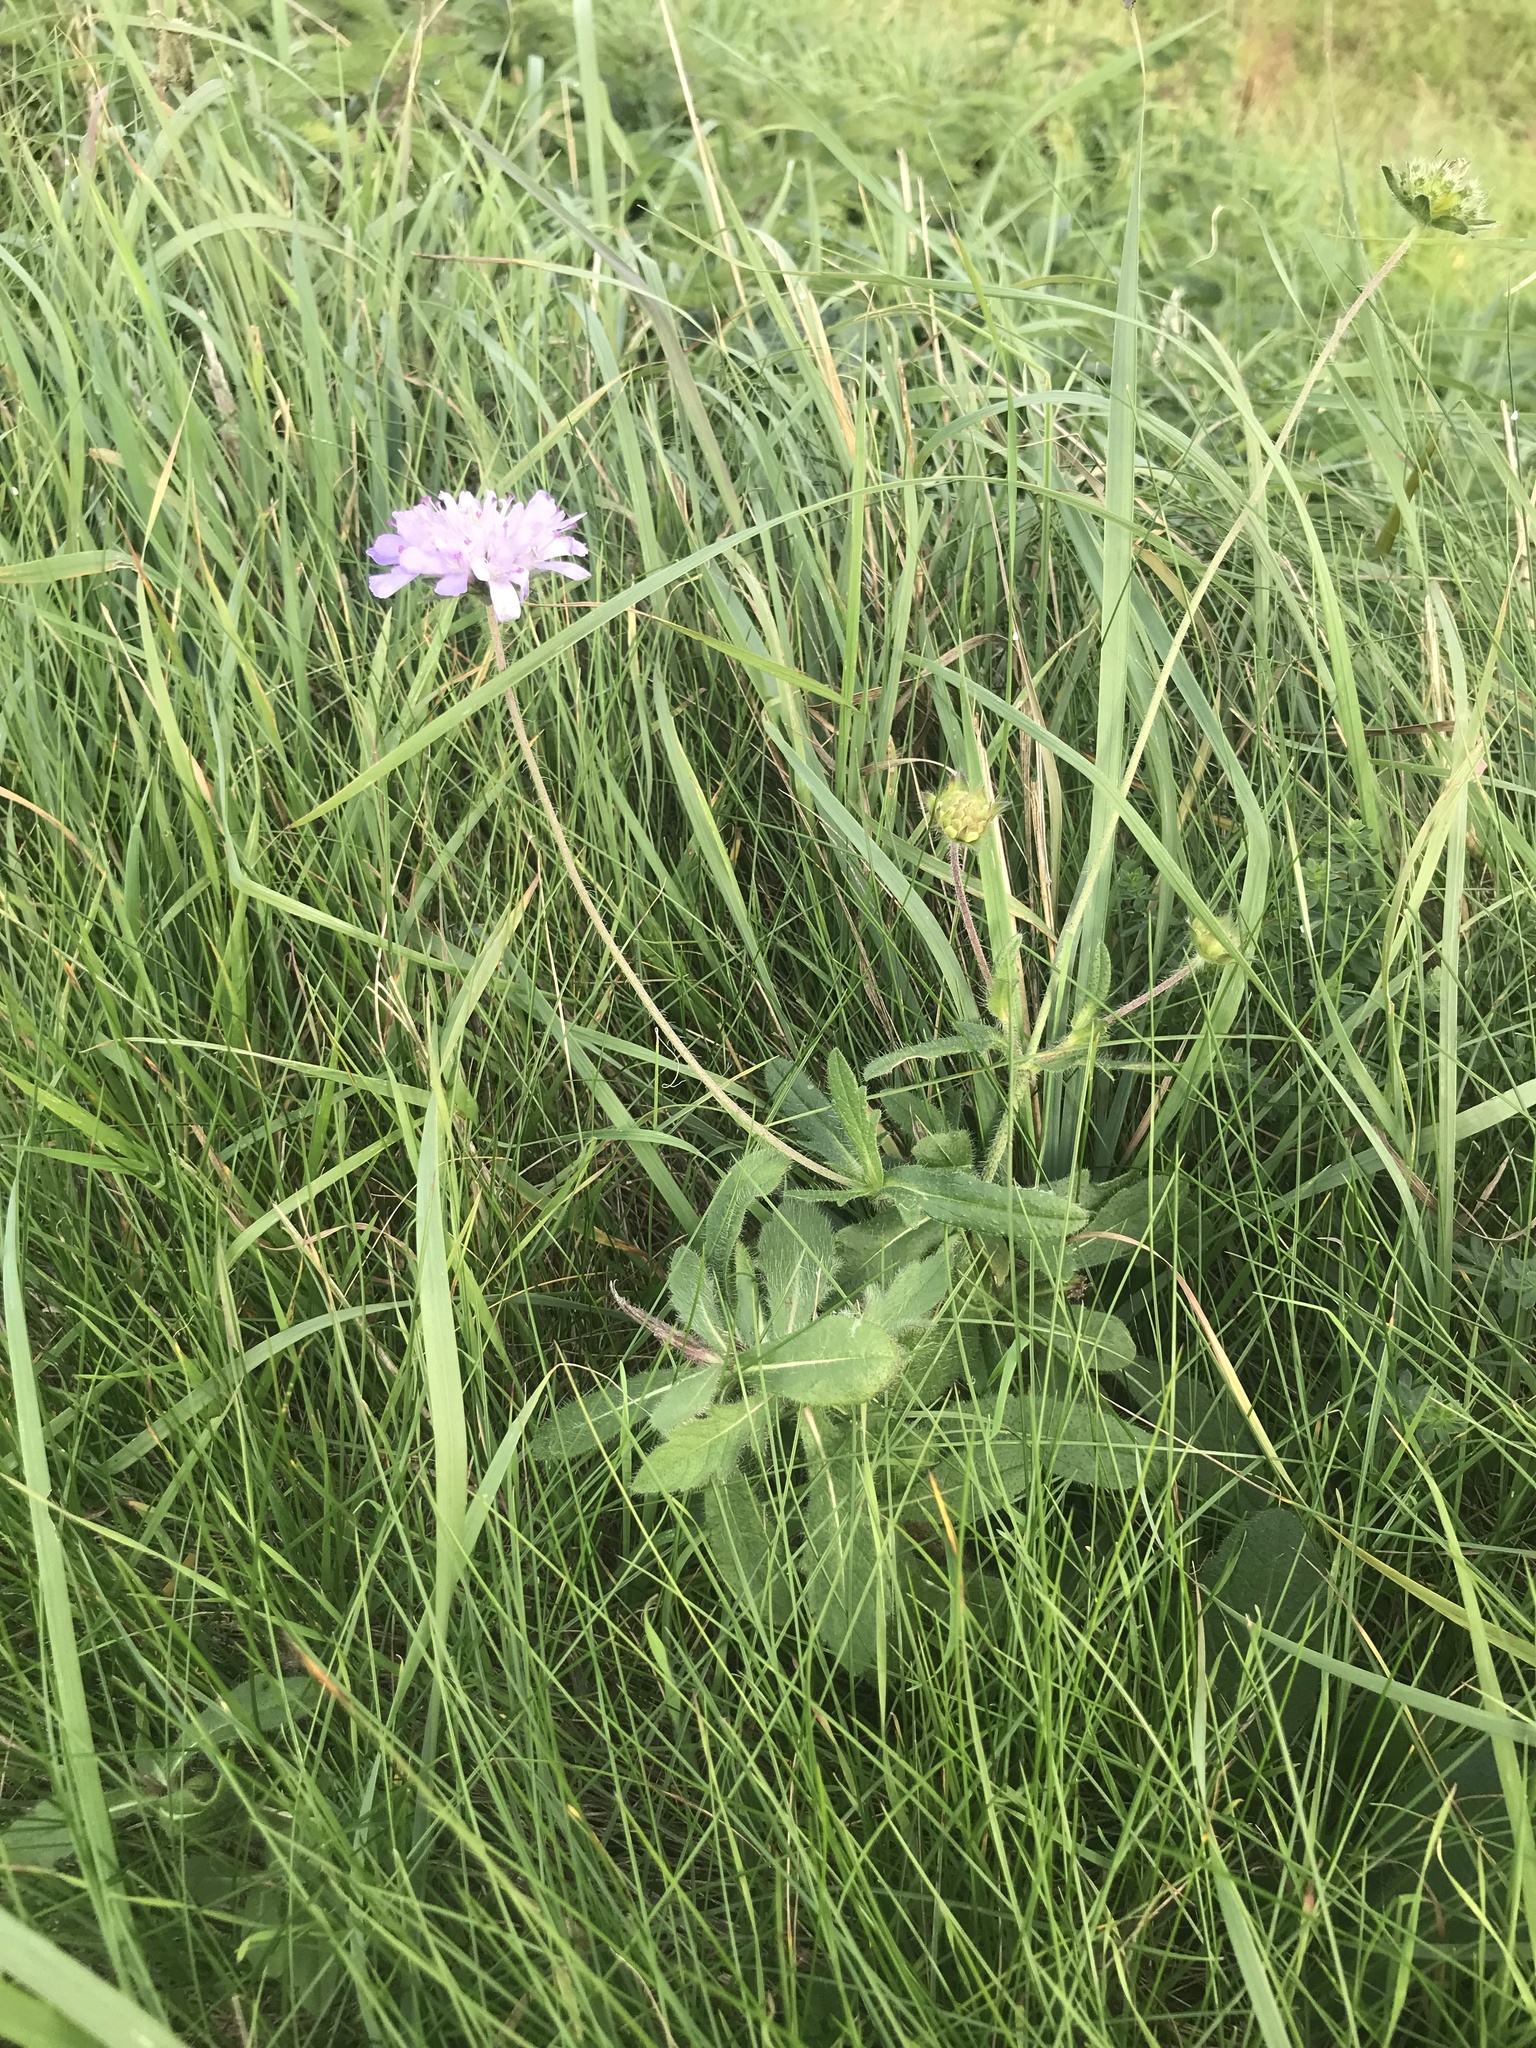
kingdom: Plantae
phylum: Tracheophyta
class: Magnoliopsida
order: Dipsacales
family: Caprifoliaceae
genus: Knautia
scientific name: Knautia arvensis
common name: Field scabiosa
